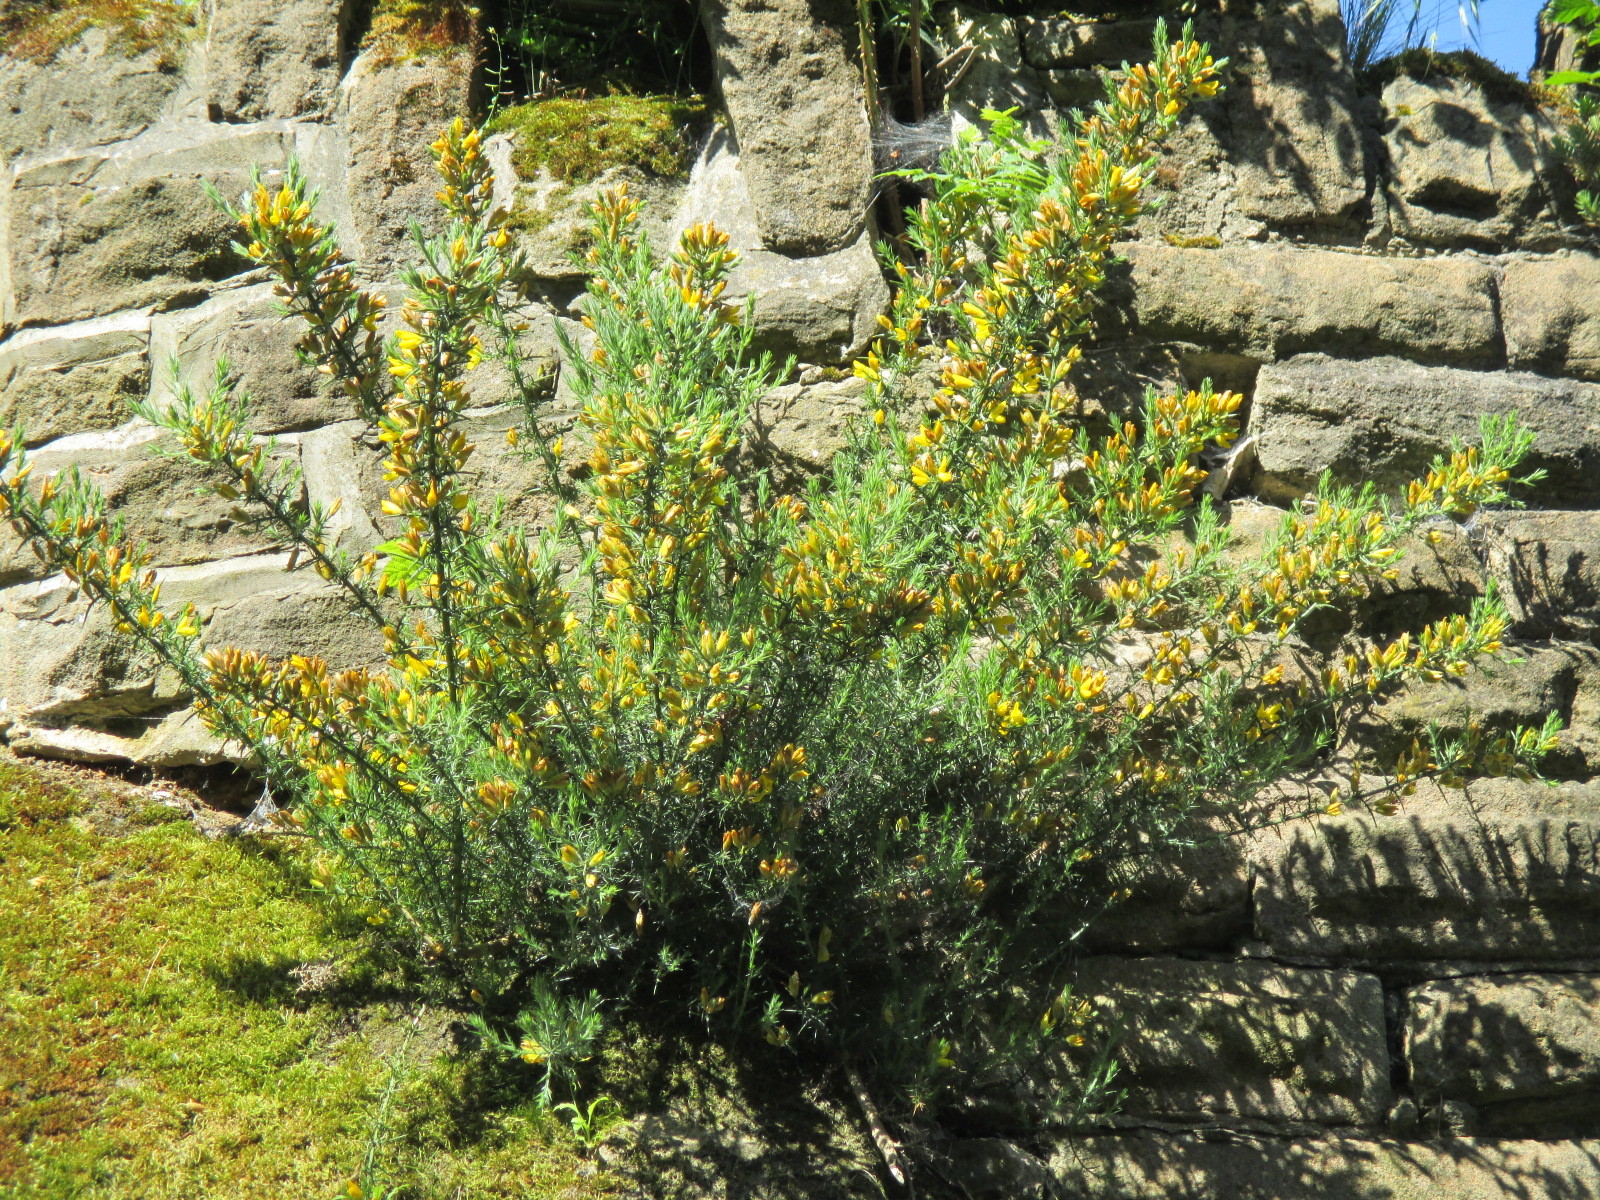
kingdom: Plantae
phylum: Tracheophyta
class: Magnoliopsida
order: Fabales
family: Fabaceae
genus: Ulex
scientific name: Ulex europaeus
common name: Common gorse
